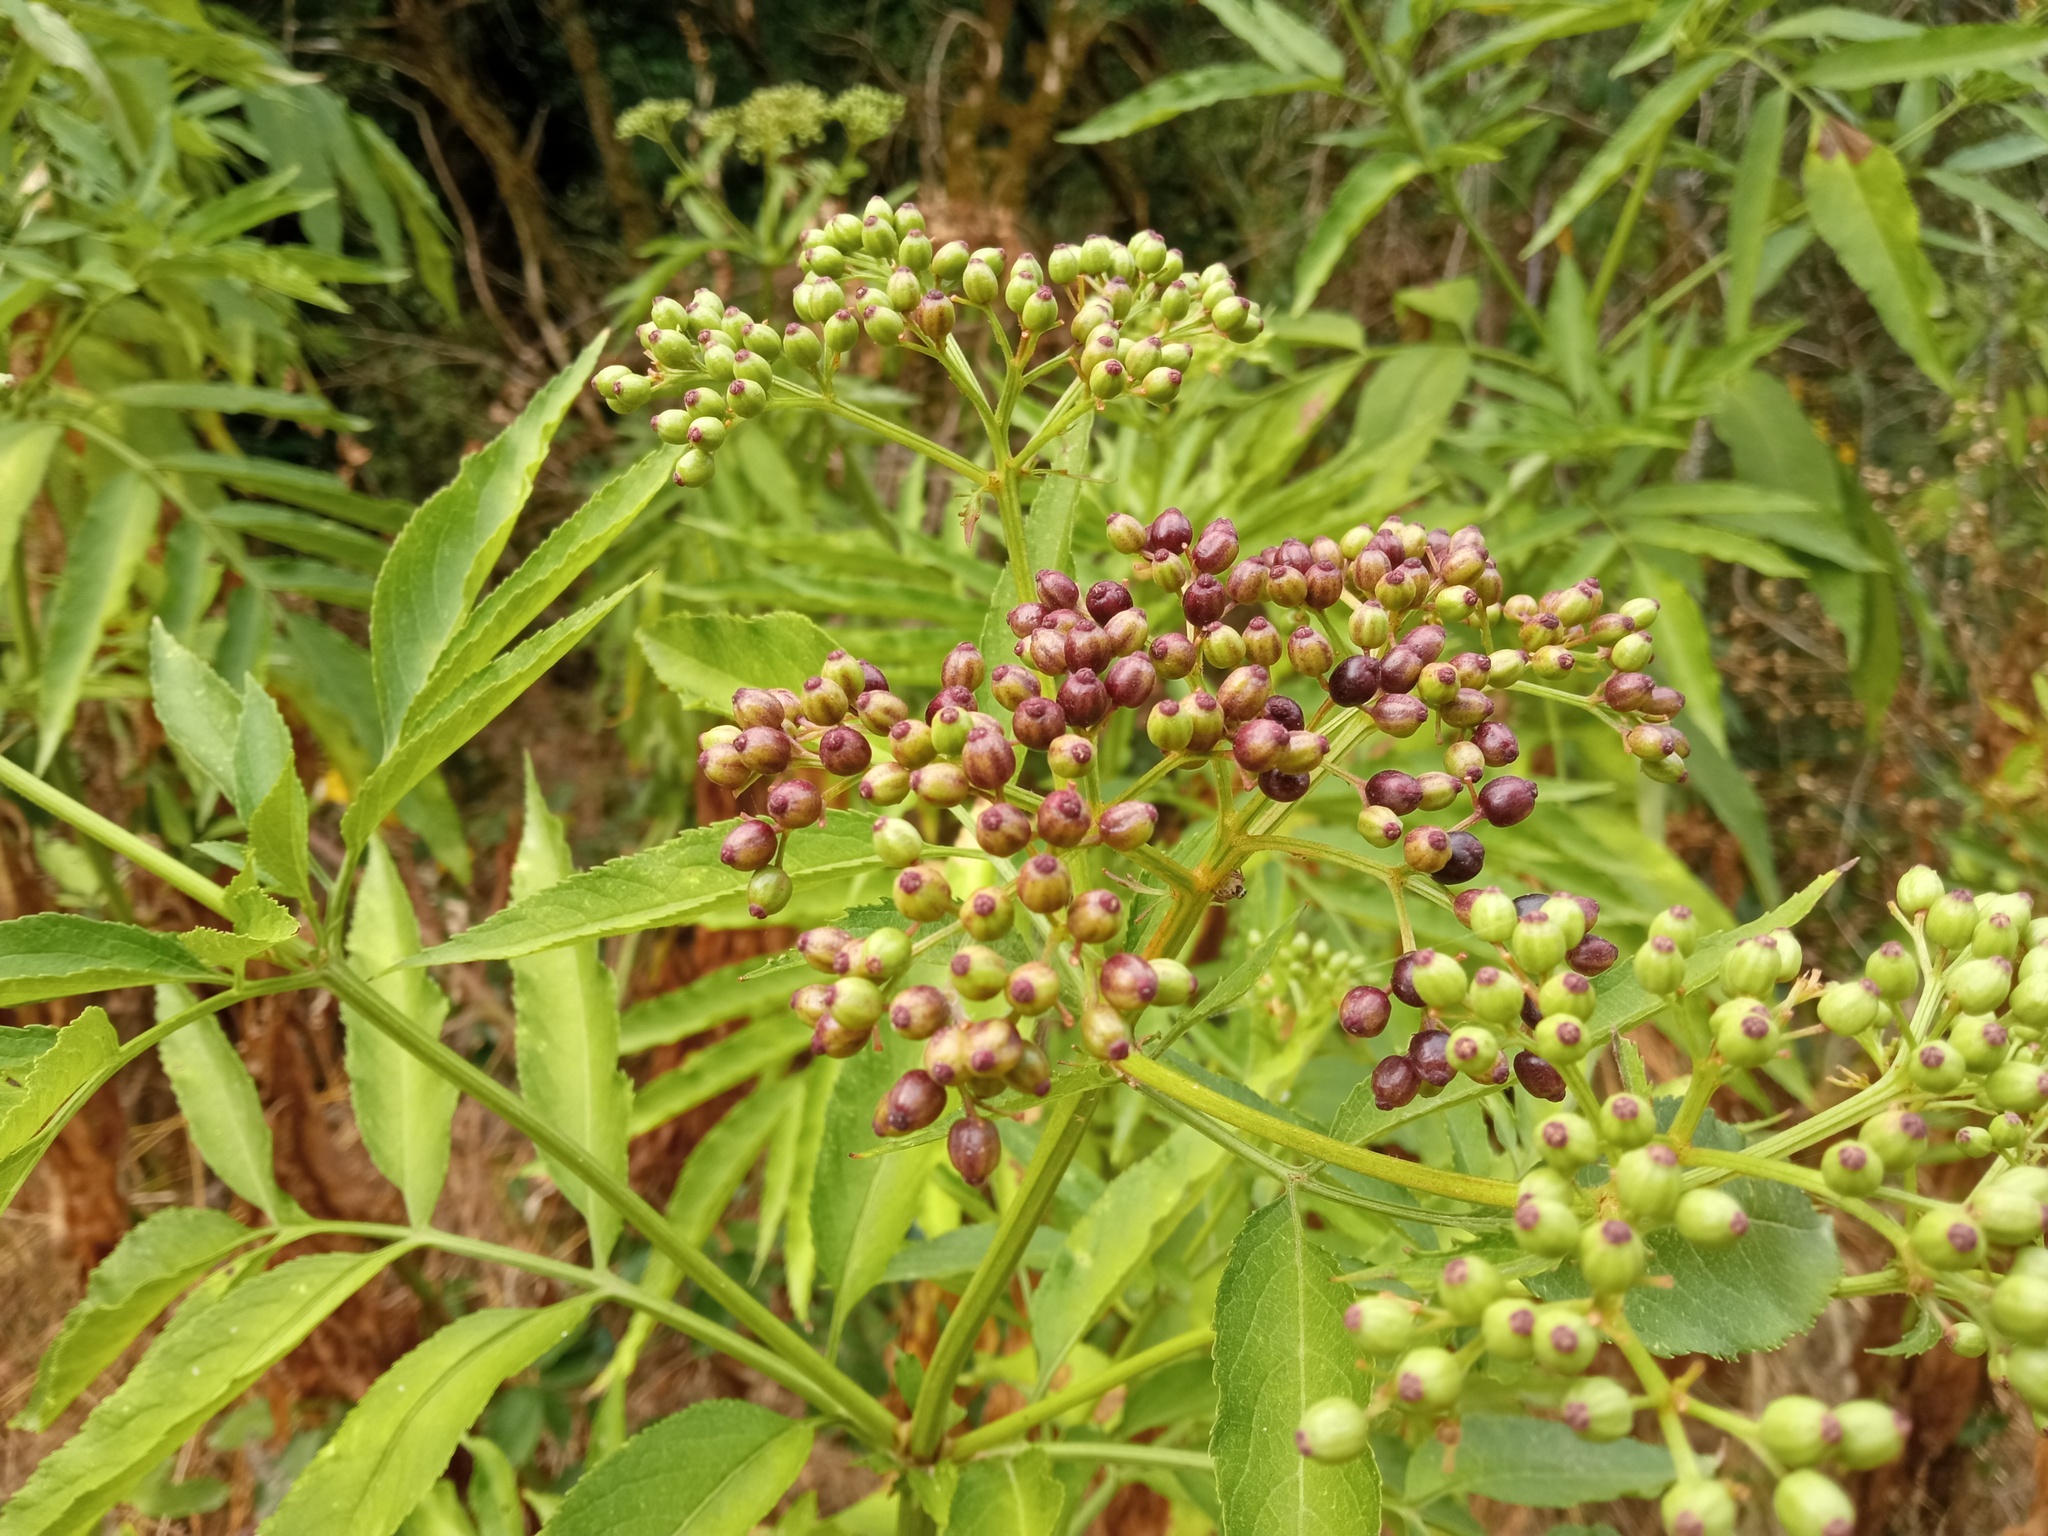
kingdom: Plantae
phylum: Tracheophyta
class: Magnoliopsida
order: Dipsacales
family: Viburnaceae
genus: Sambucus
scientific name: Sambucus ebulus
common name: Dwarf elder
